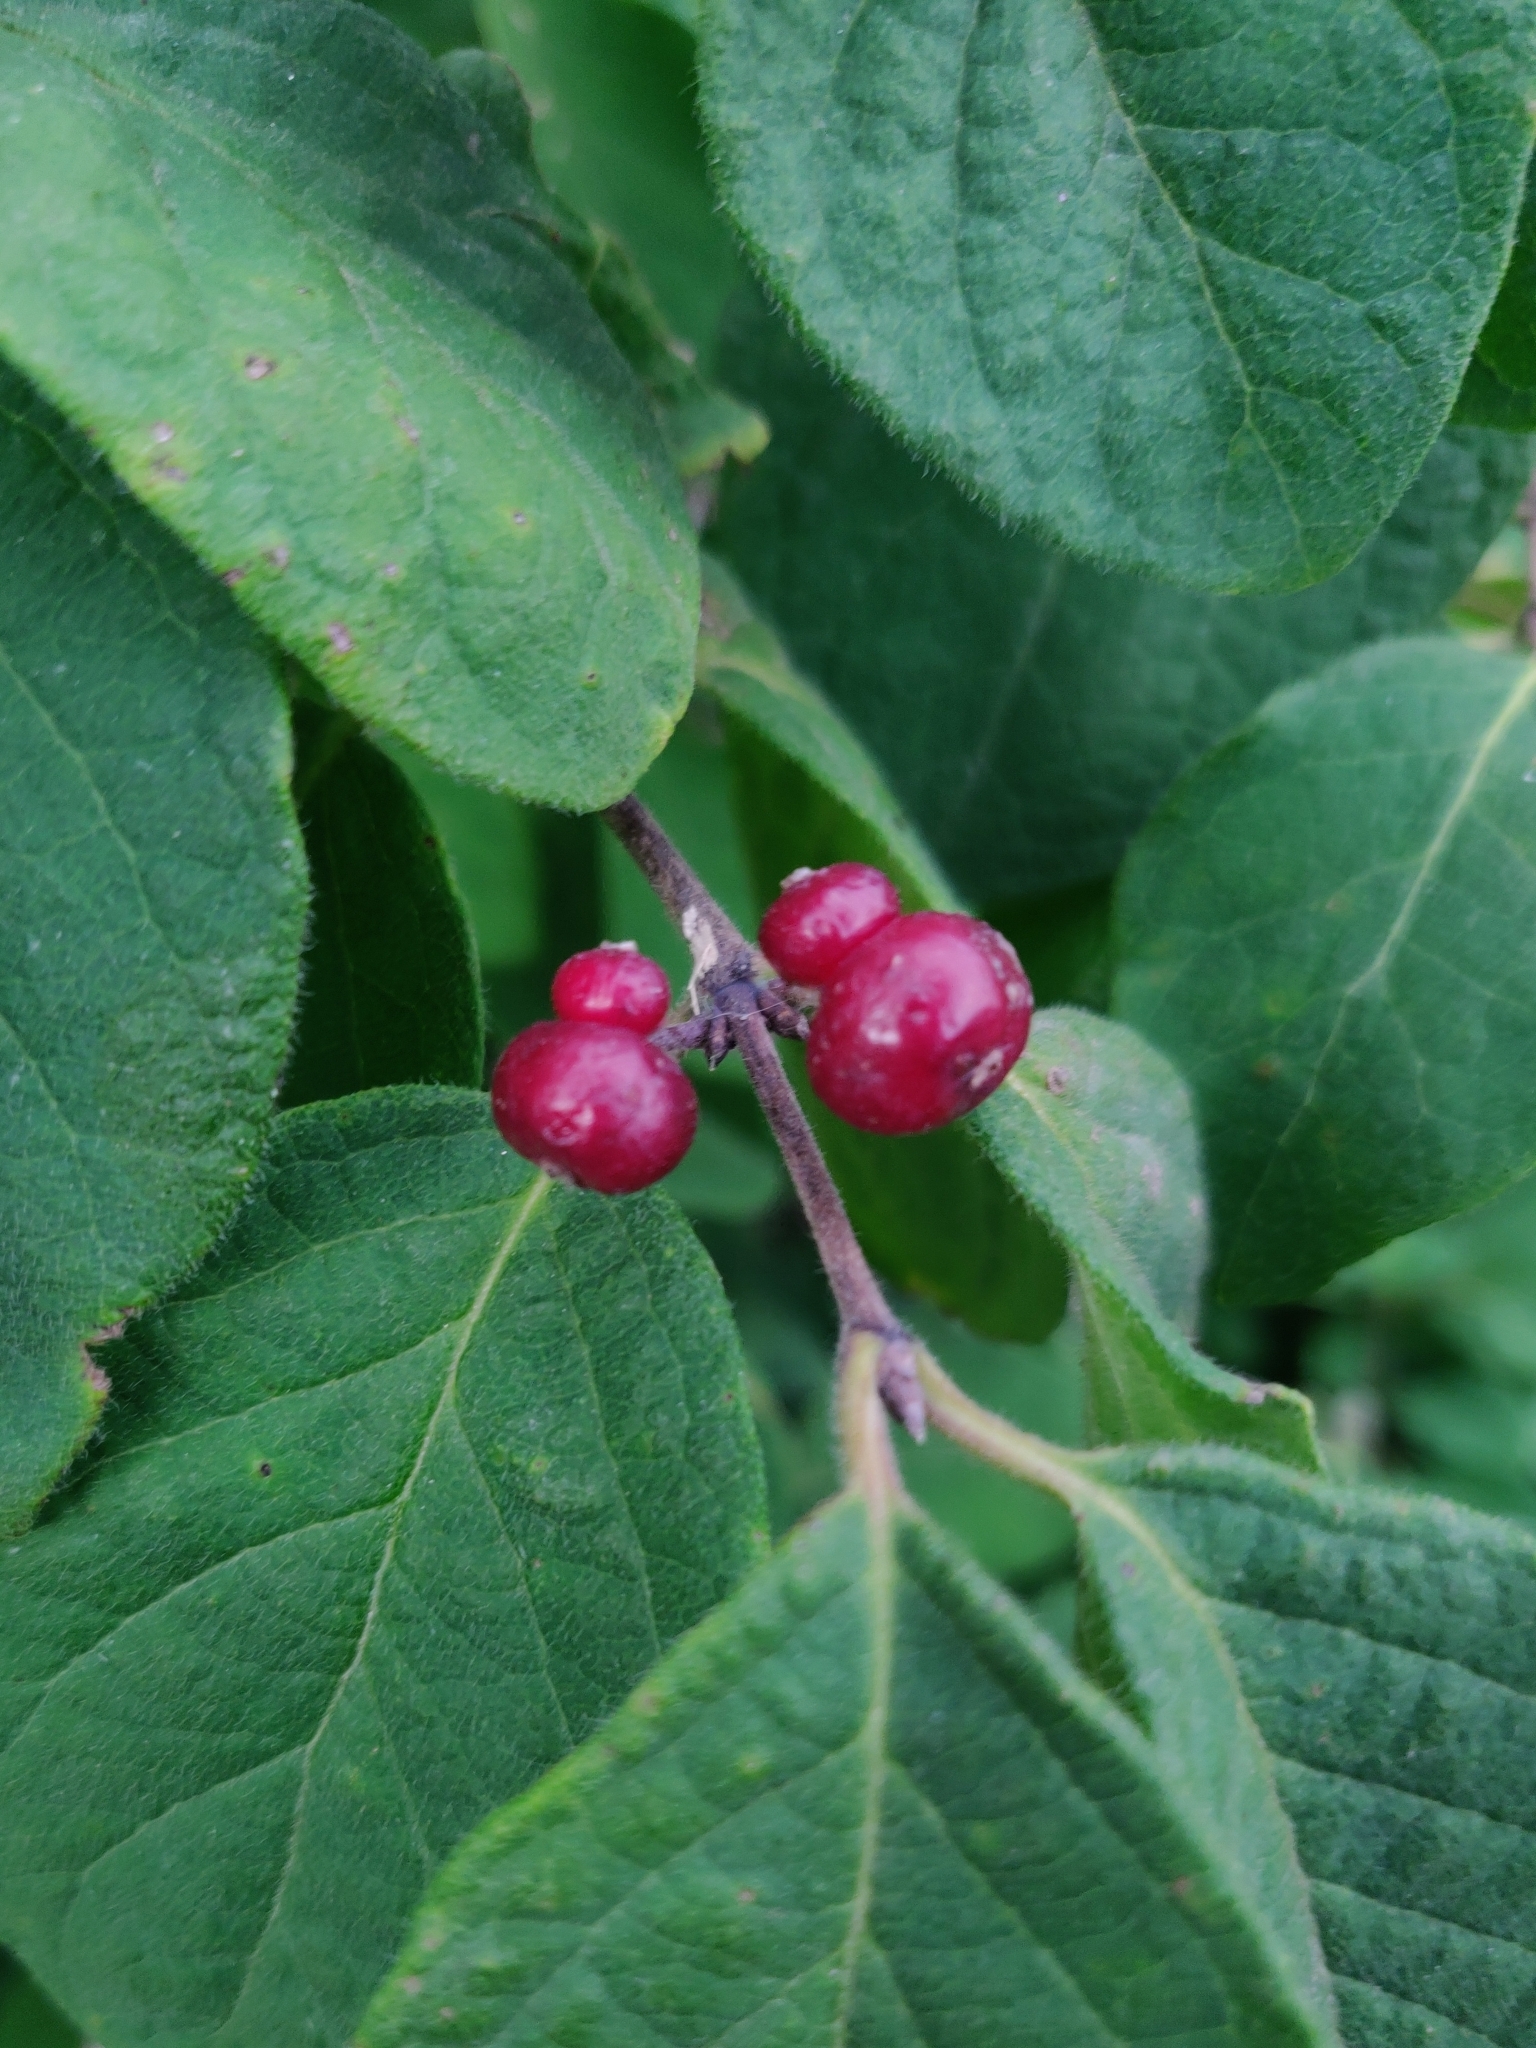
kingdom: Plantae
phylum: Tracheophyta
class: Magnoliopsida
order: Dipsacales
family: Caprifoliaceae
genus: Lonicera
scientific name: Lonicera xylosteum
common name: Fly honeysuckle
